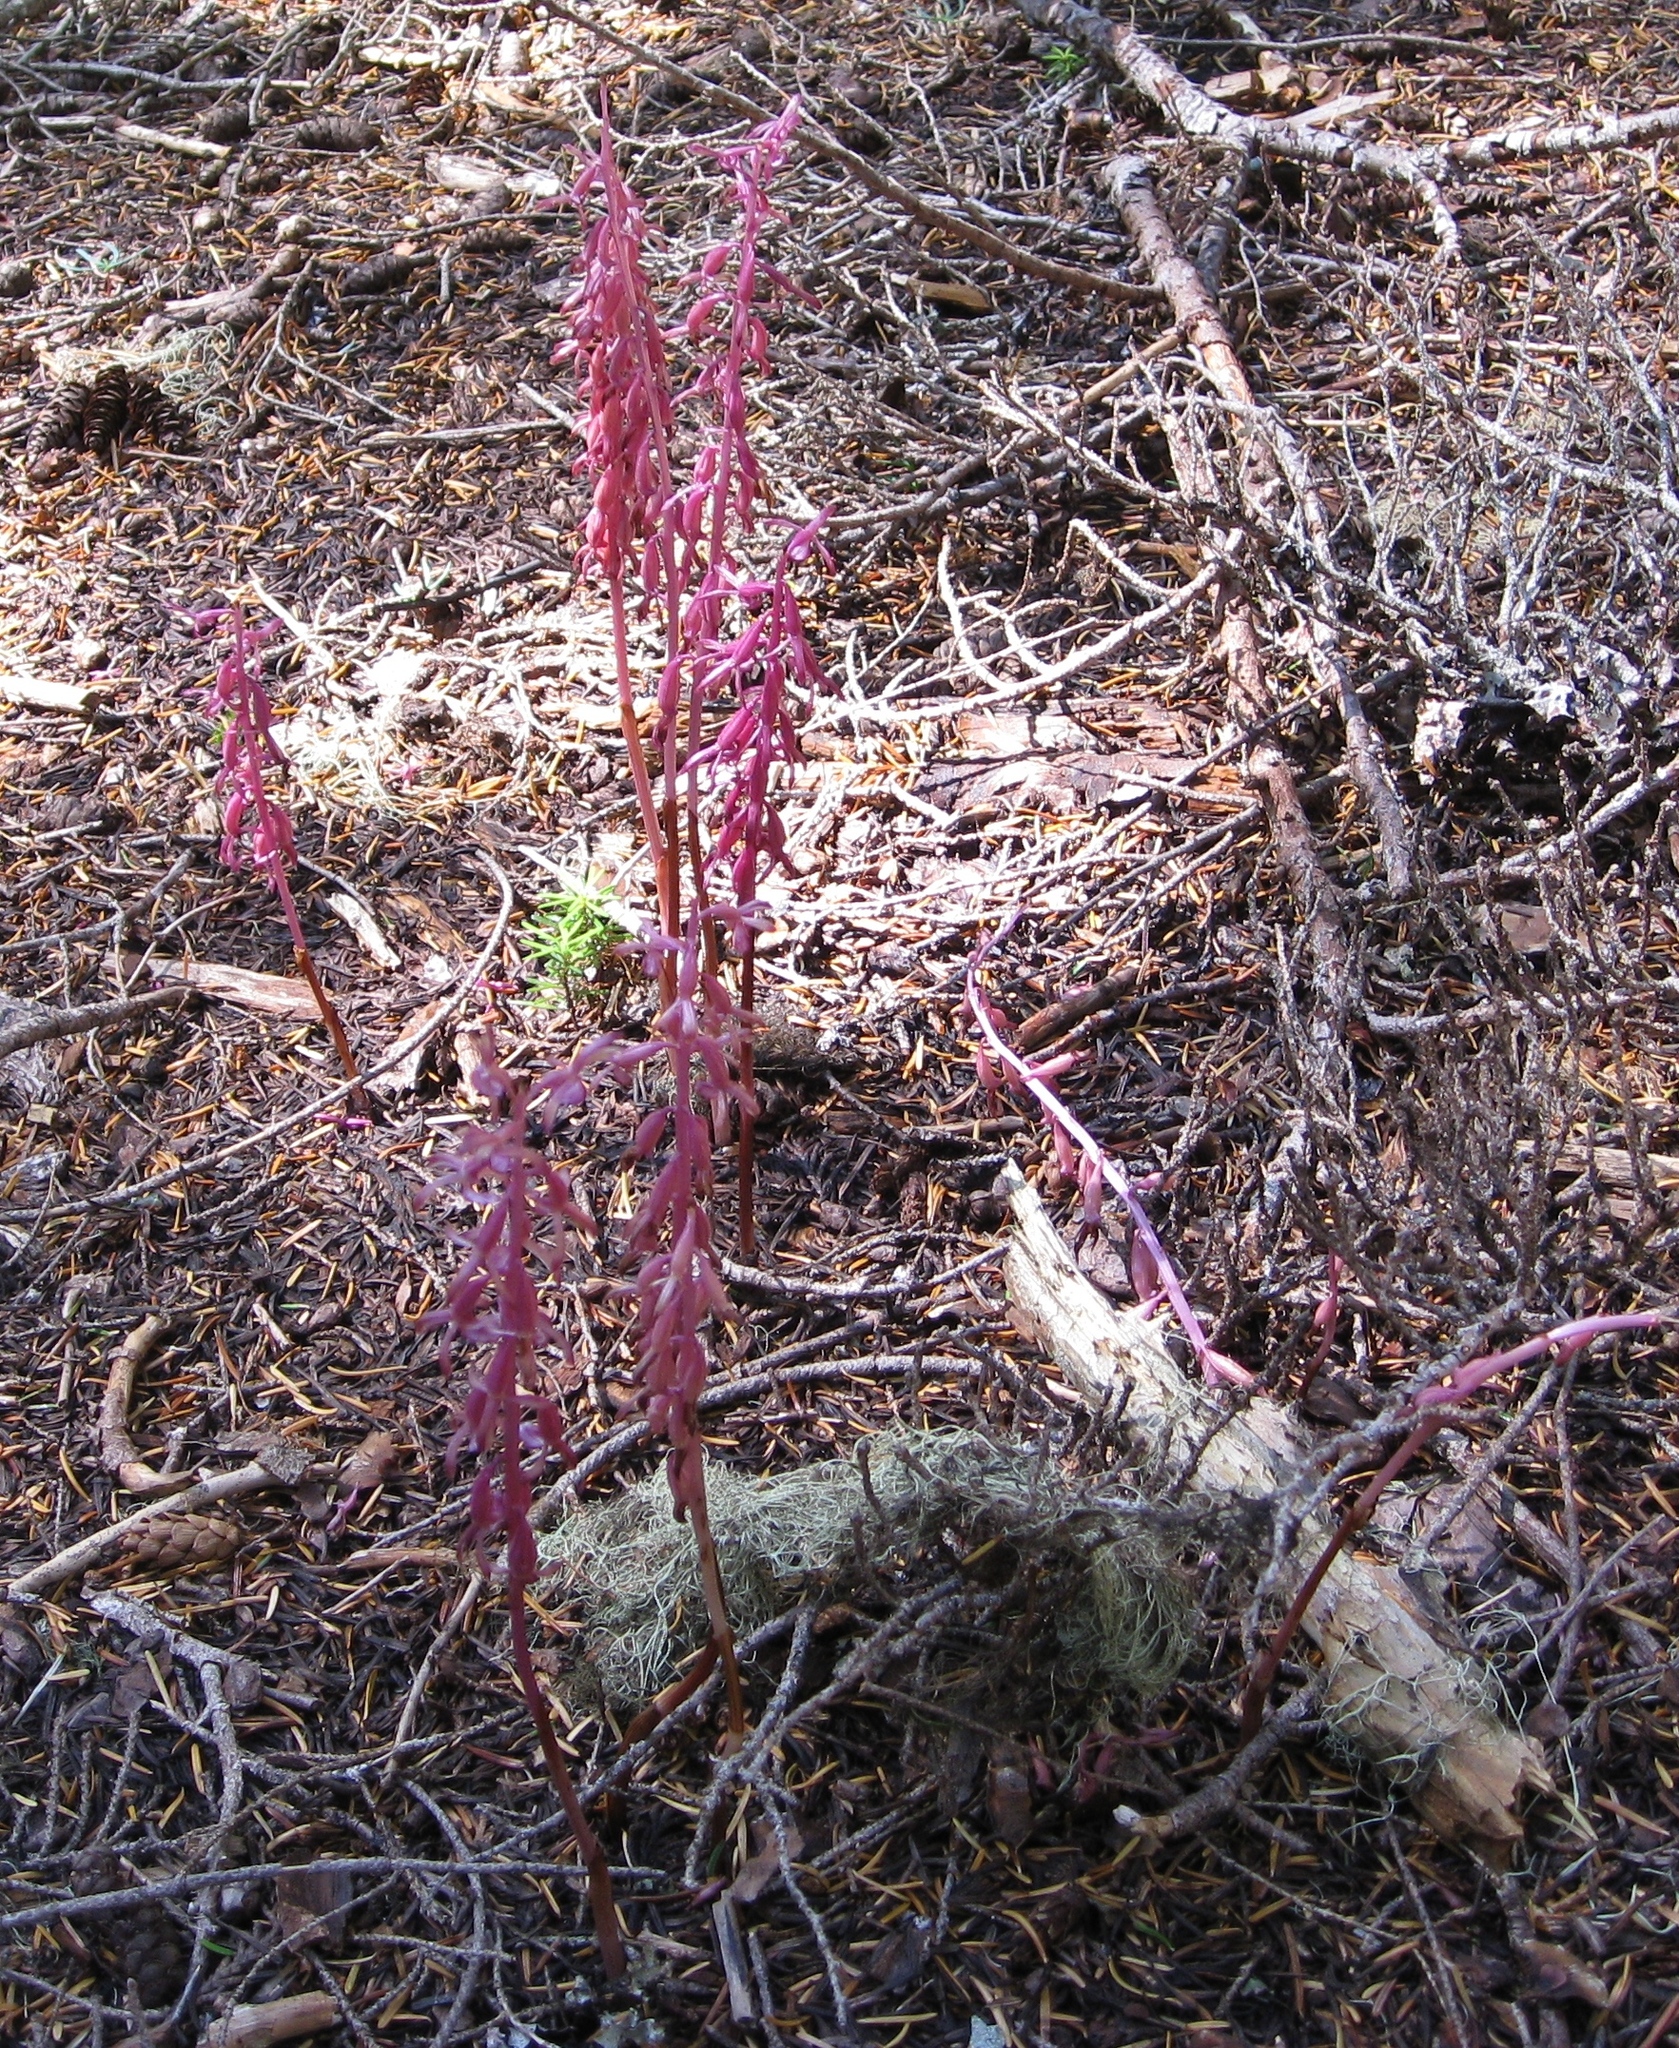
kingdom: Plantae
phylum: Tracheophyta
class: Liliopsida
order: Asparagales
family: Orchidaceae
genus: Corallorhiza
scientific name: Corallorhiza mertensiana
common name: Pacific coralroot
